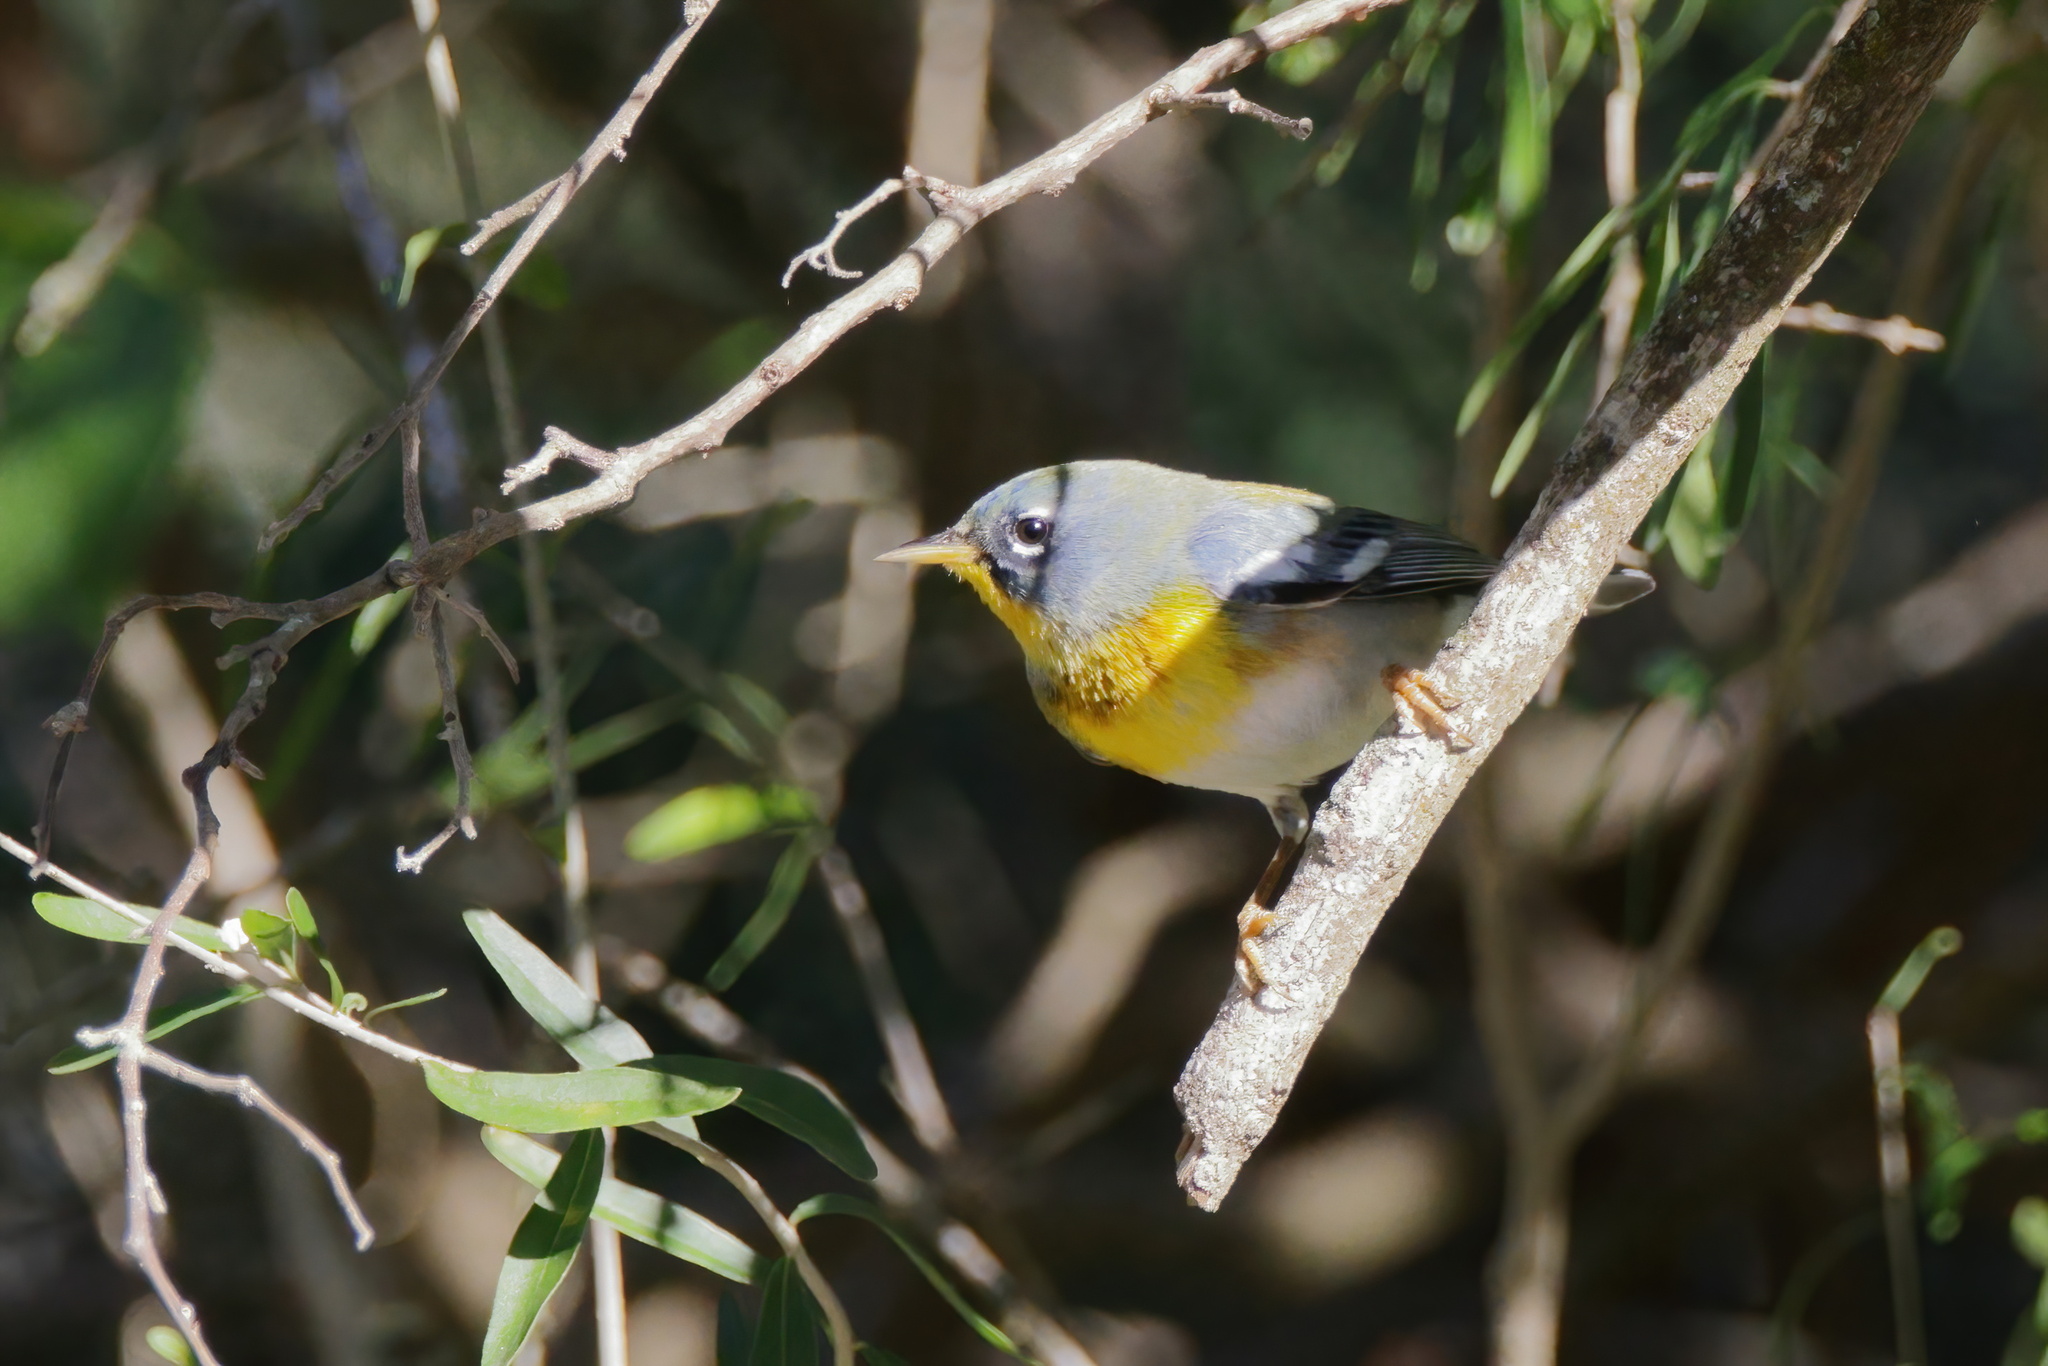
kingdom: Animalia
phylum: Chordata
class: Aves
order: Passeriformes
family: Parulidae
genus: Setophaga
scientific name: Setophaga americana
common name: Northern parula
